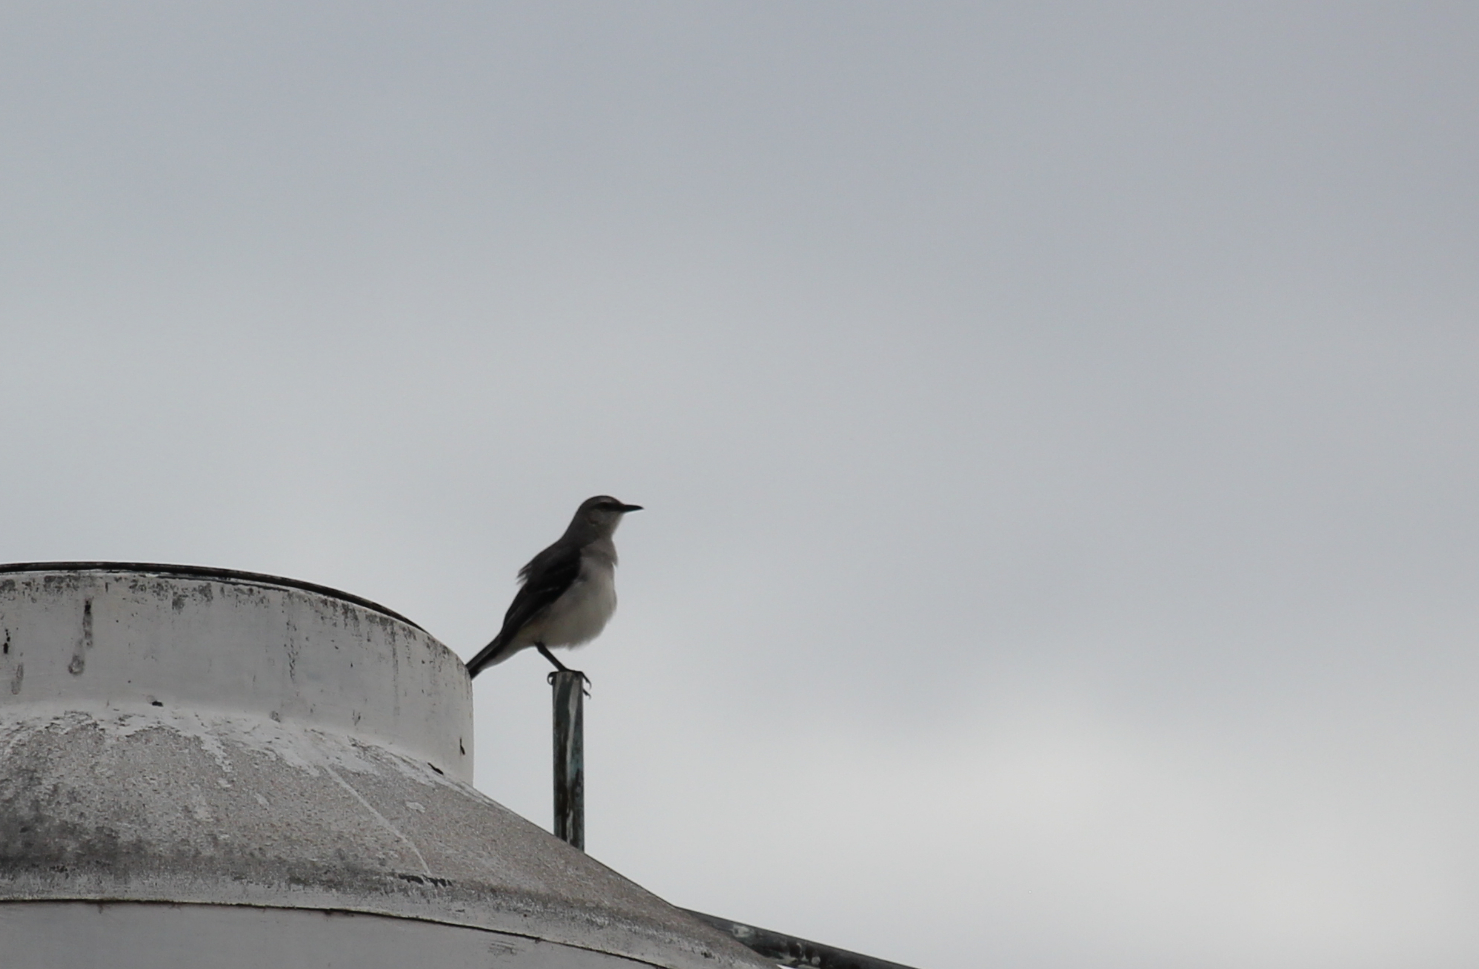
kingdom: Animalia
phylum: Chordata
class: Aves
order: Passeriformes
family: Mimidae
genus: Mimus
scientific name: Mimus gilvus
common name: Tropical mockingbird
